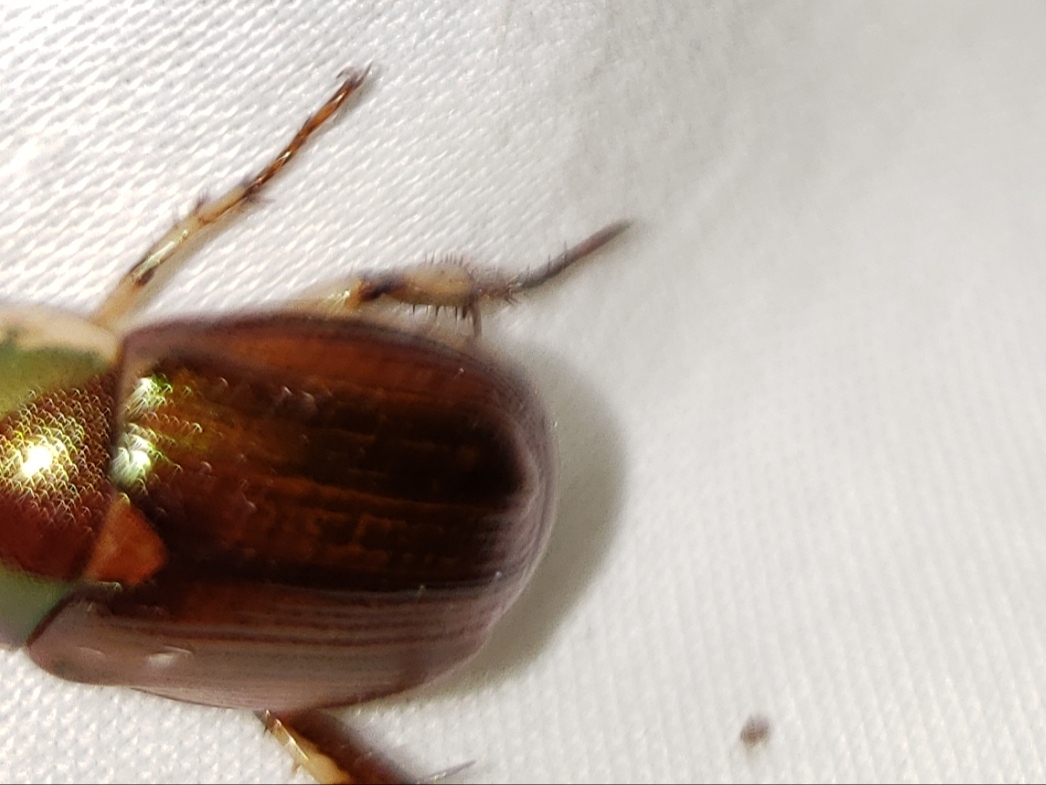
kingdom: Animalia
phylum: Arthropoda
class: Insecta
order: Coleoptera
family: Scarabaeidae
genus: Callistethus
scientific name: Callistethus marginatus
